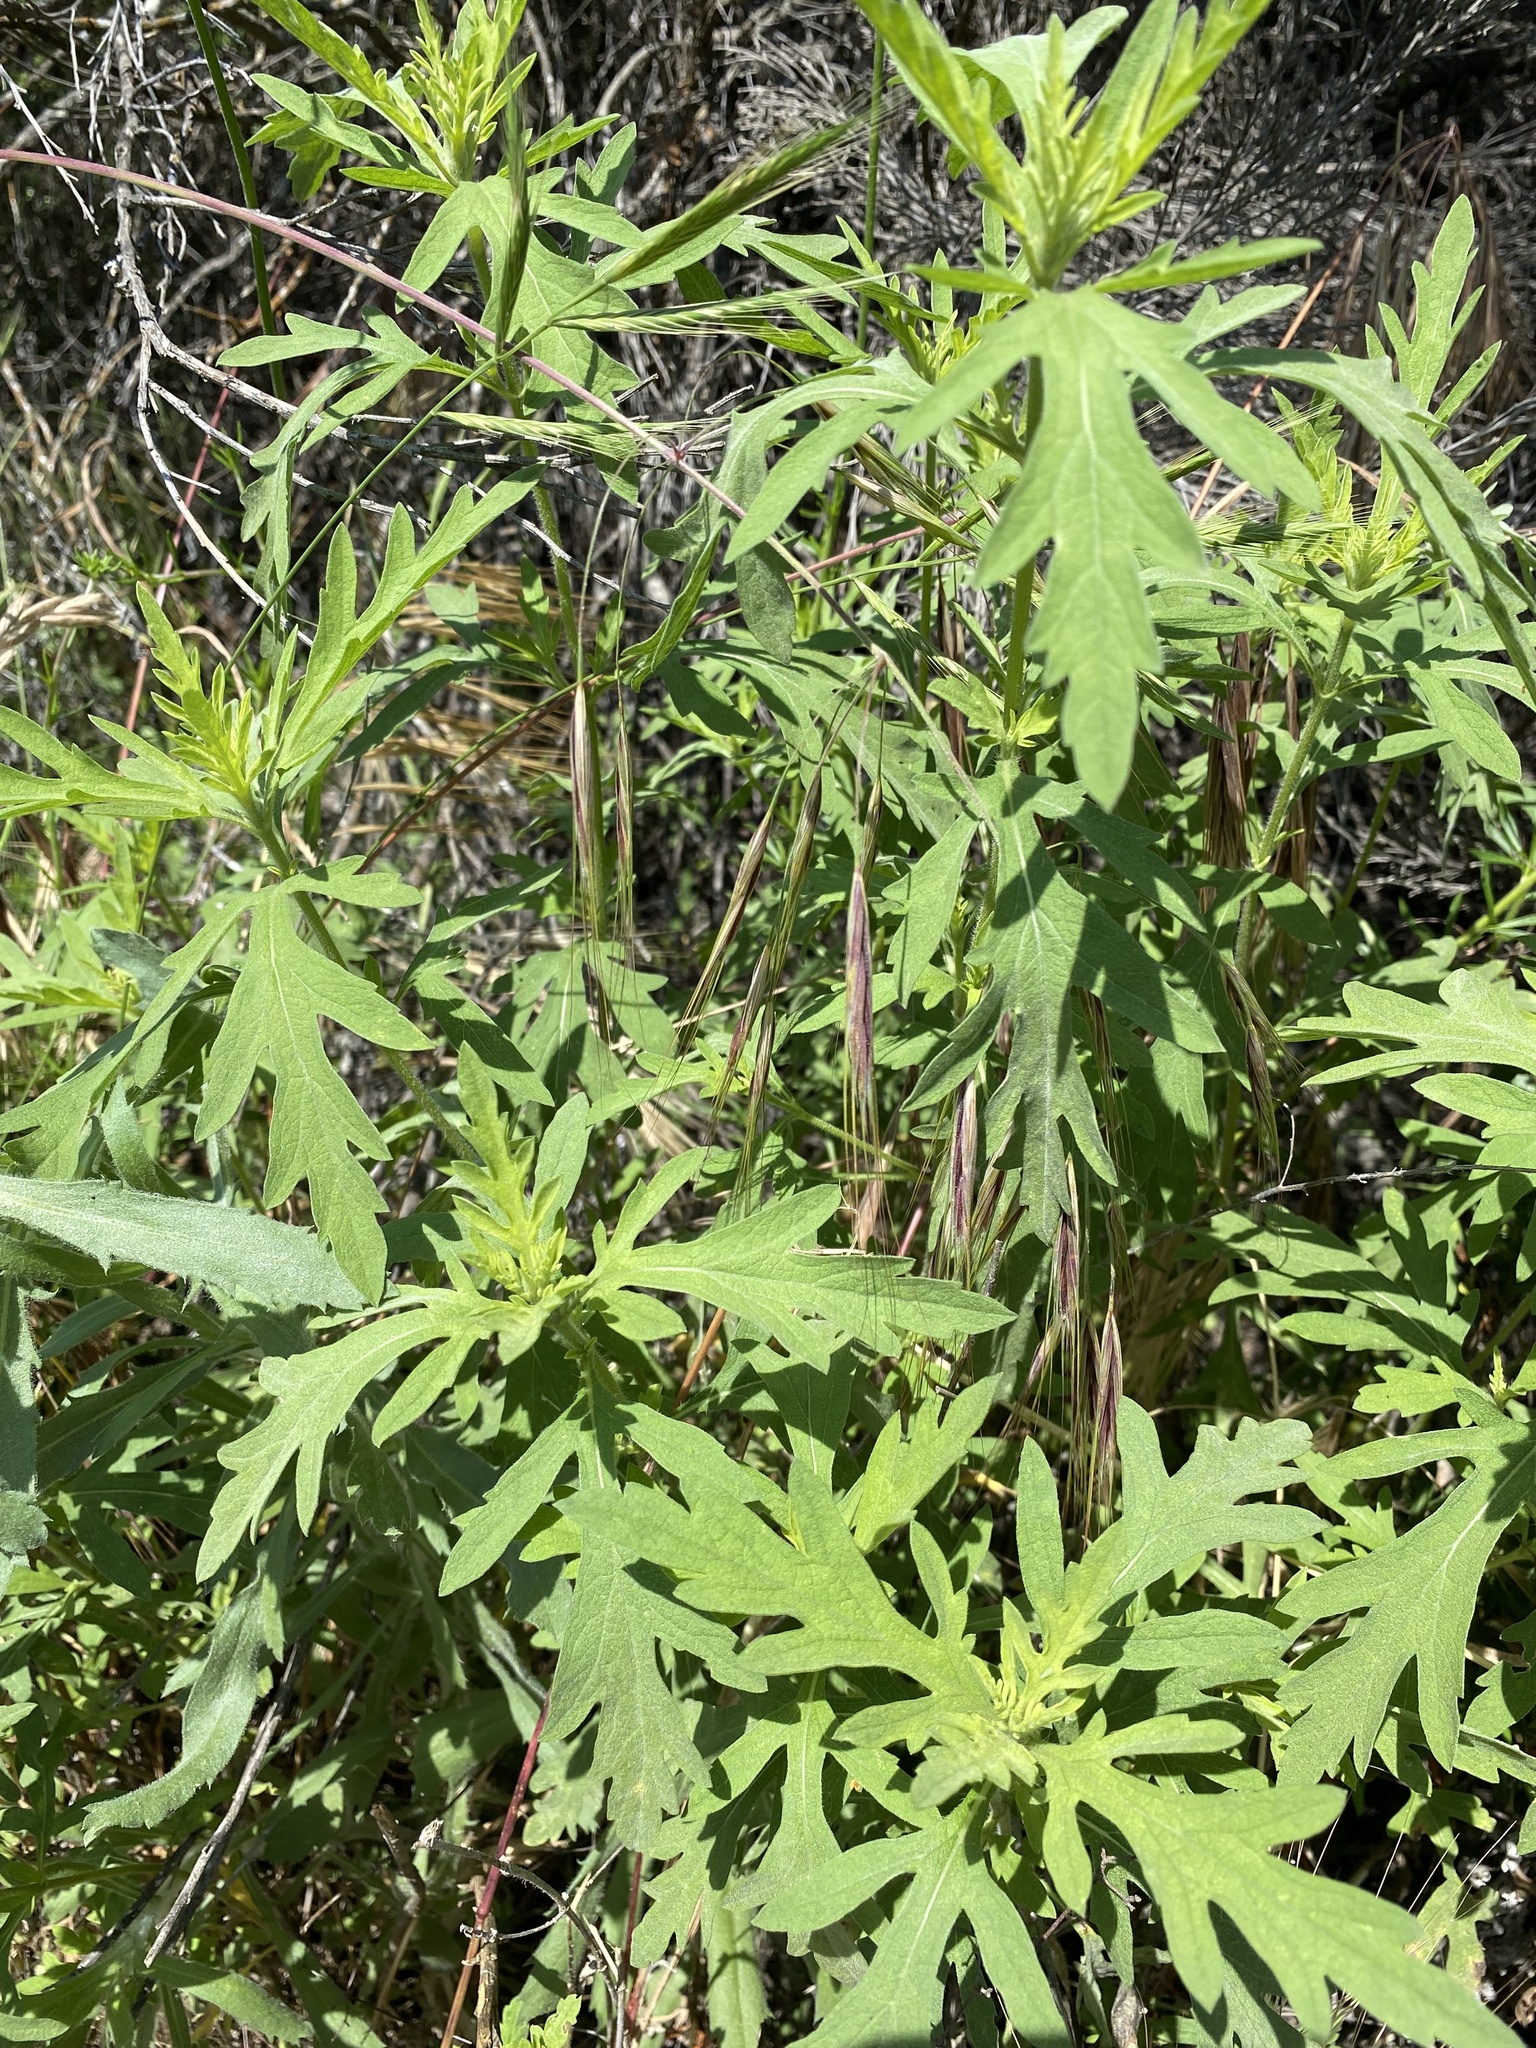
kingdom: Plantae
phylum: Tracheophyta
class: Magnoliopsida
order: Asterales
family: Asteraceae
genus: Ambrosia
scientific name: Ambrosia psilostachya
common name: Perennial ragweed
